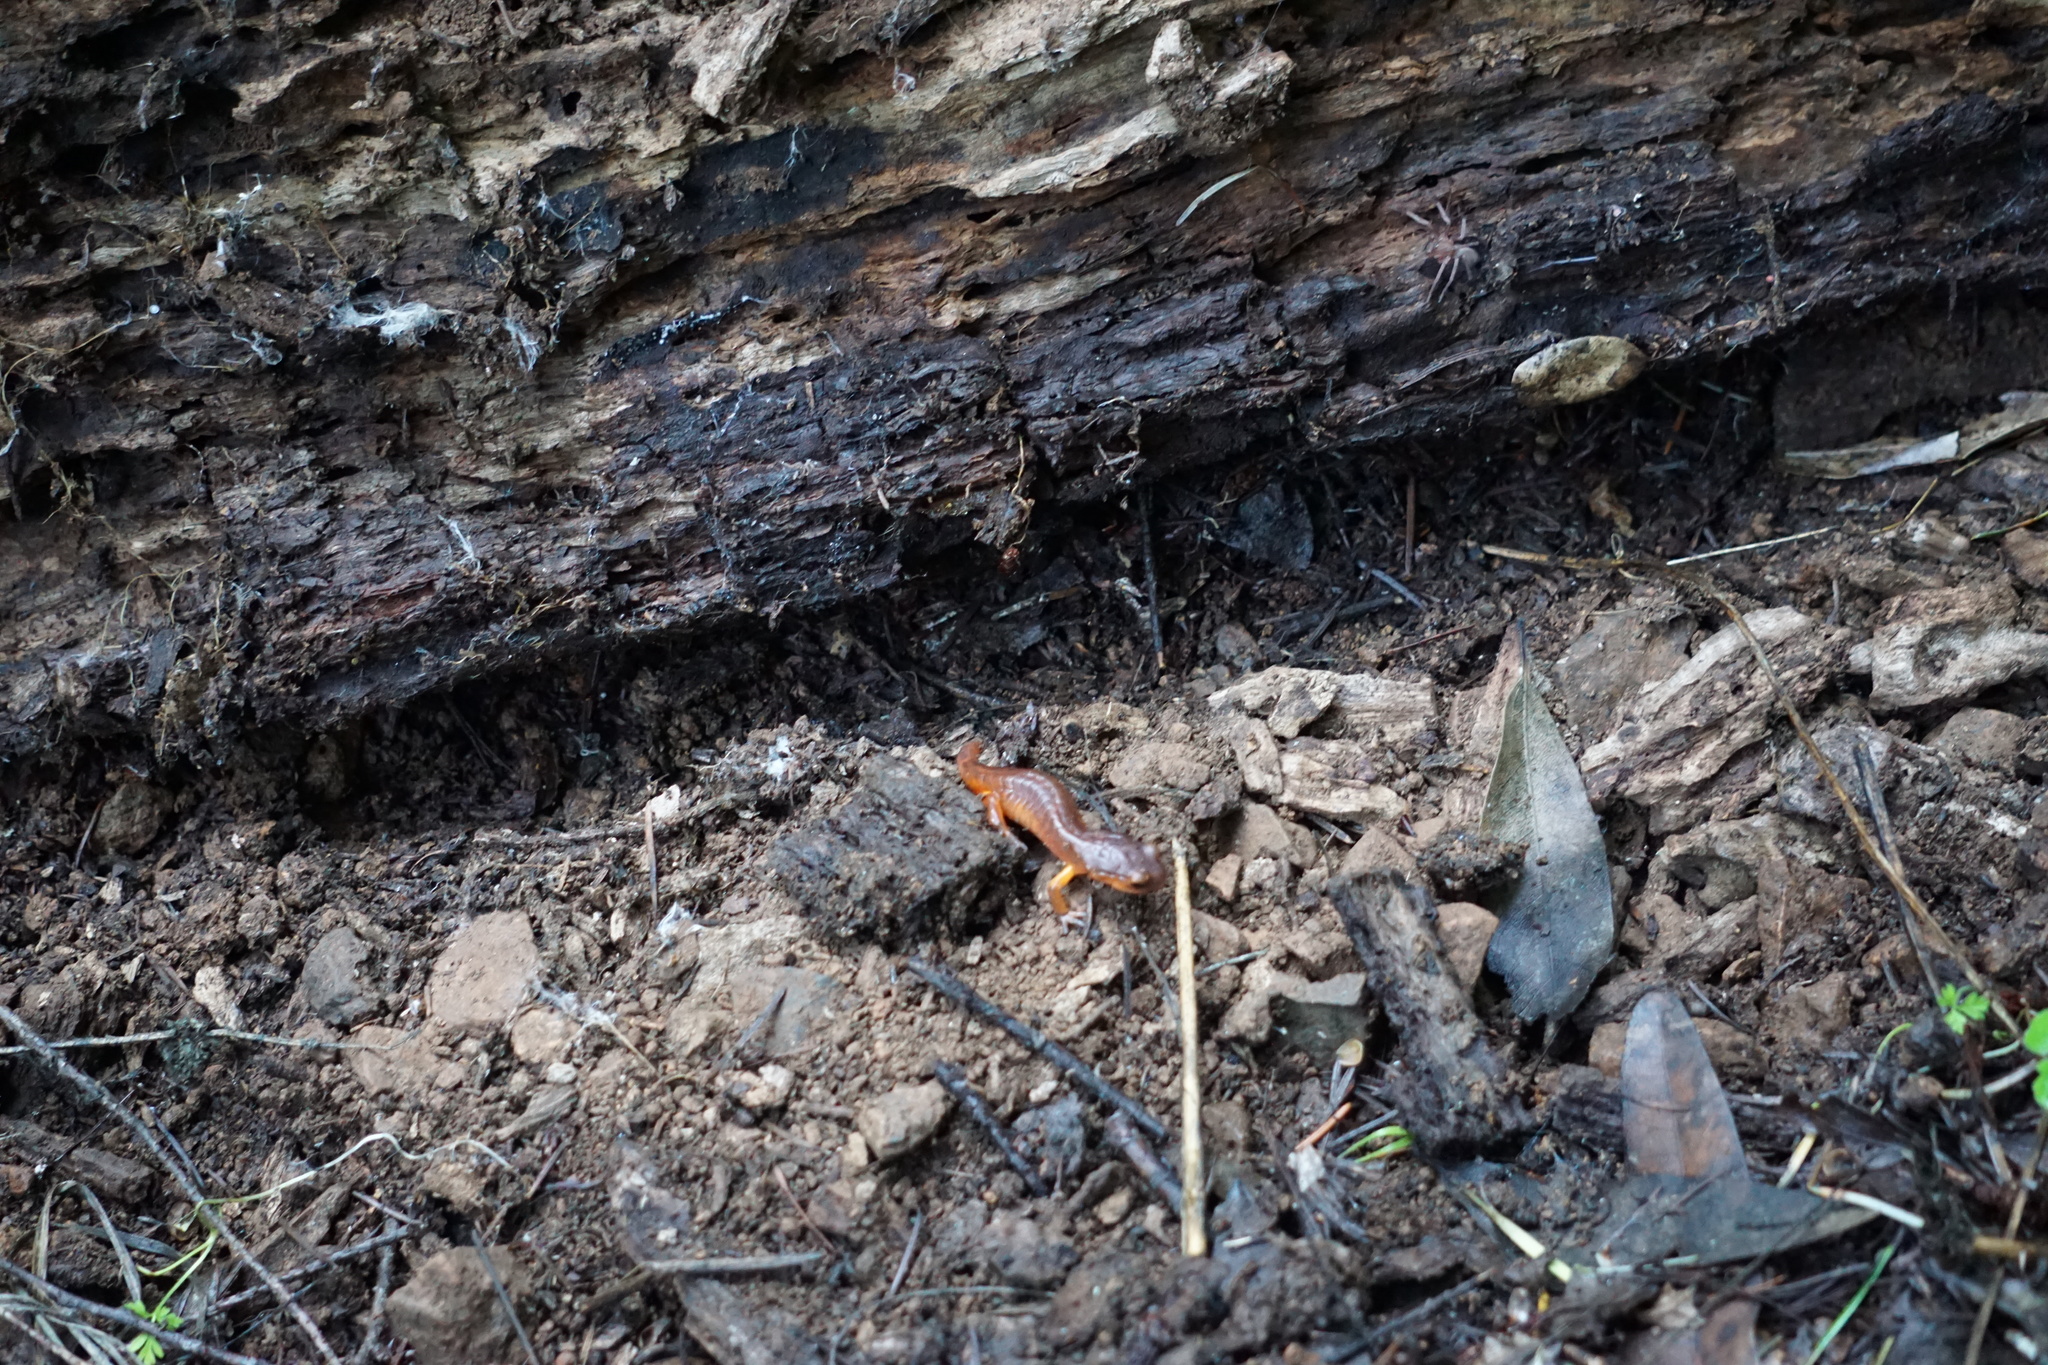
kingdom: Animalia
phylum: Chordata
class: Amphibia
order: Caudata
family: Plethodontidae
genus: Ensatina
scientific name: Ensatina eschscholtzii
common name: Ensatina
